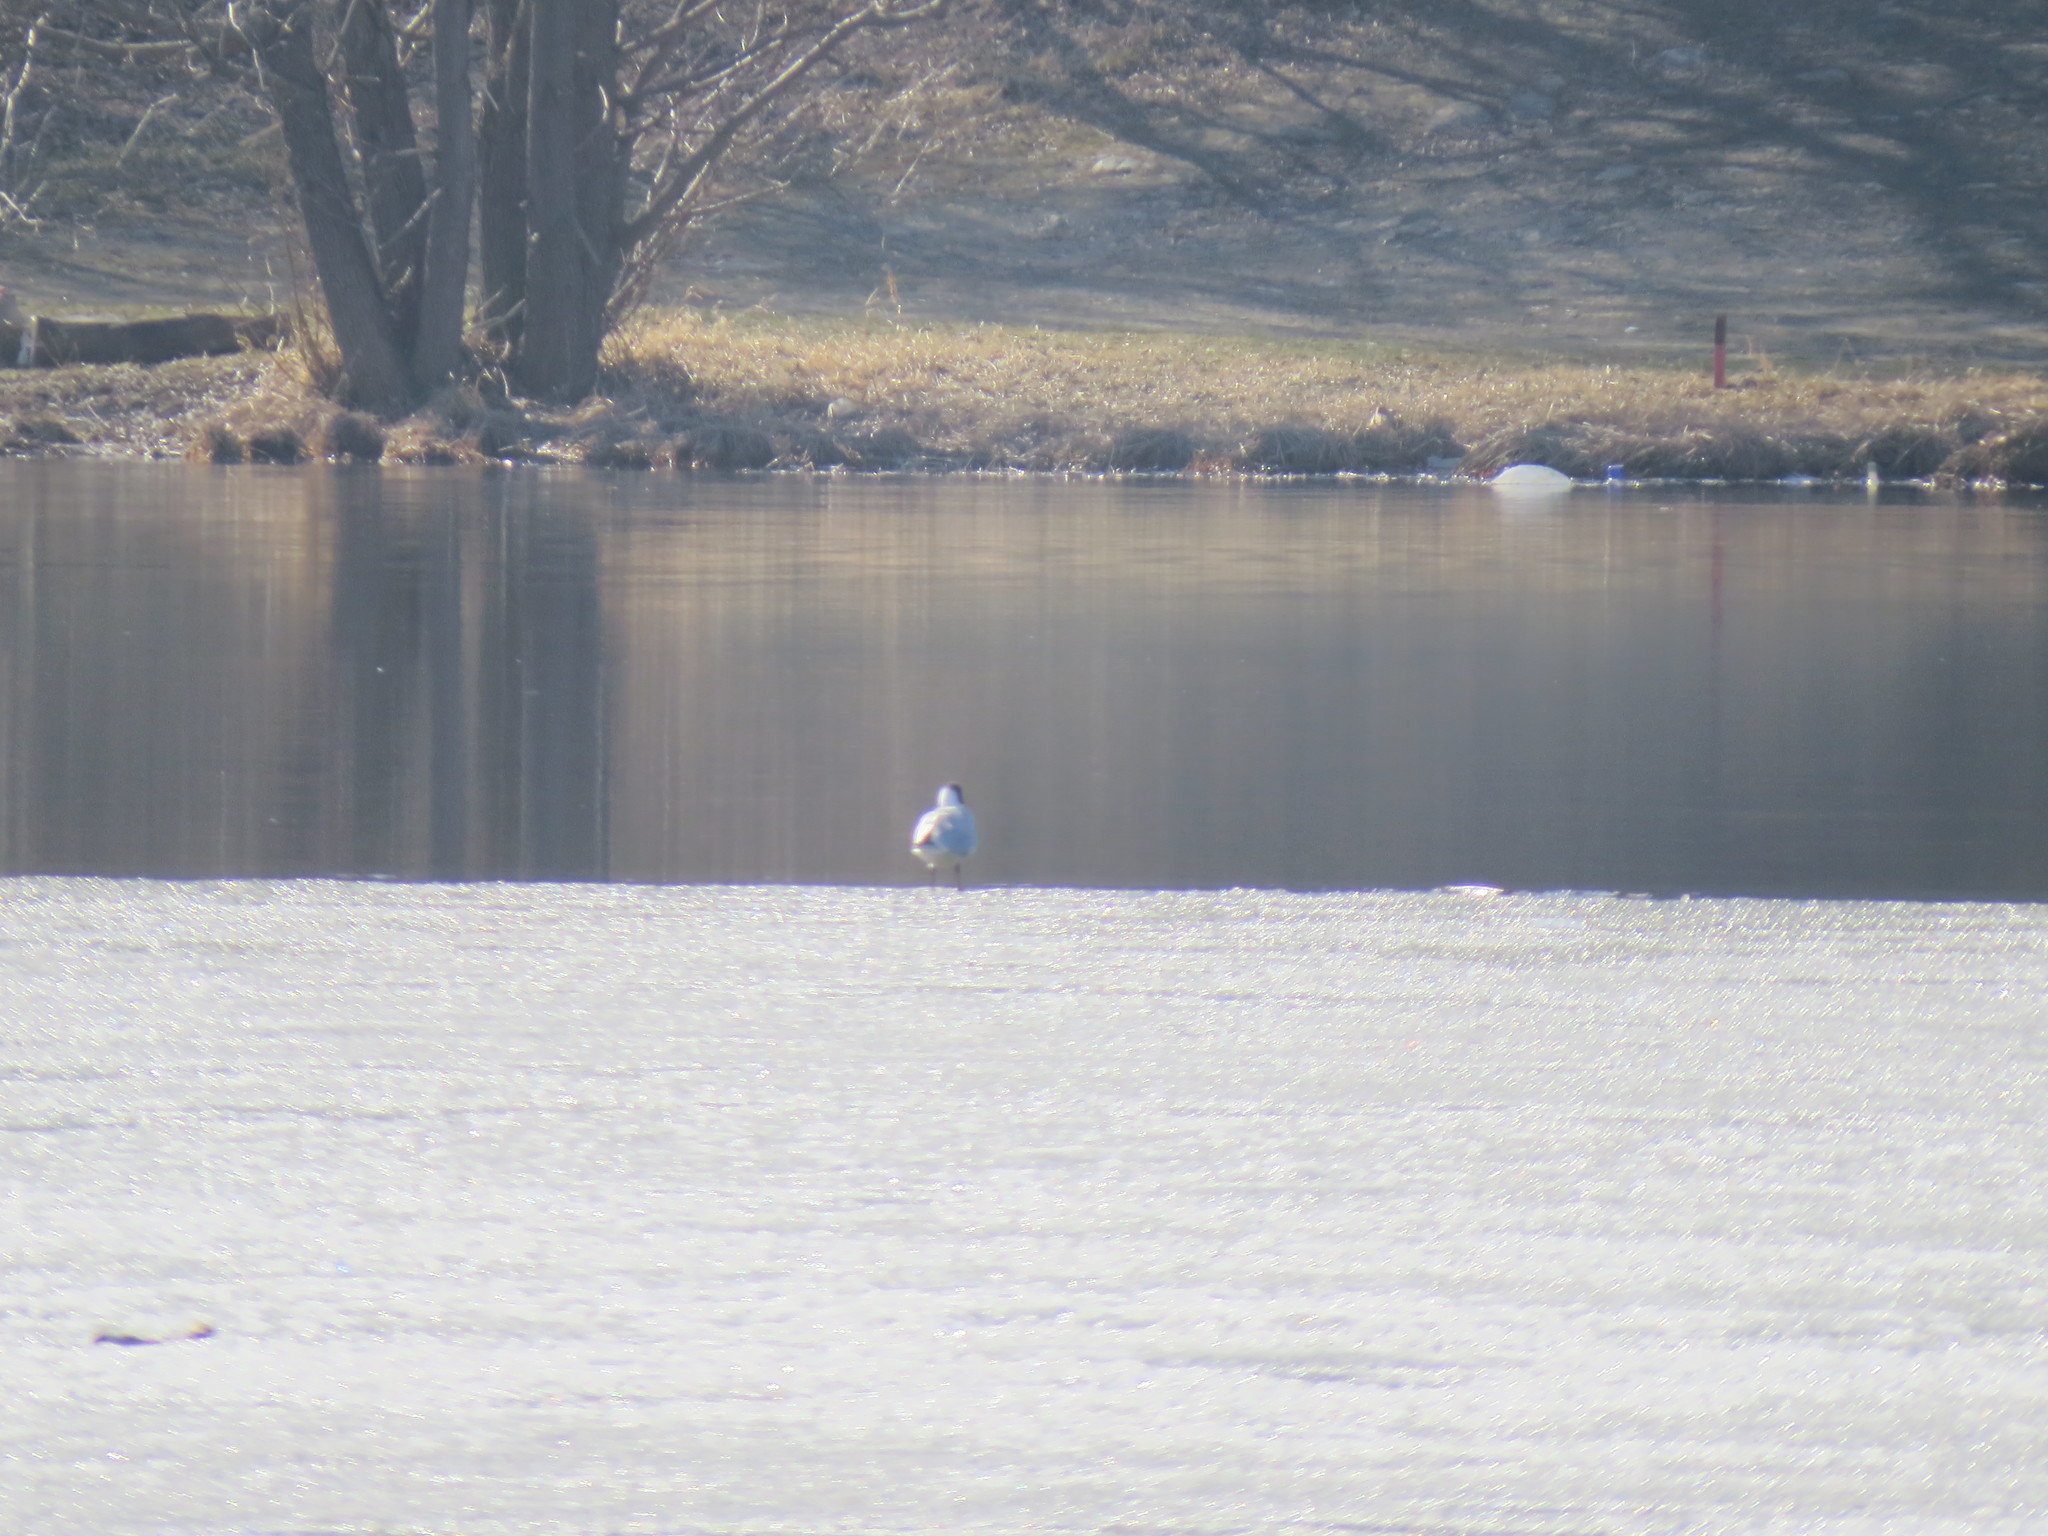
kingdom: Animalia
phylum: Chordata
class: Aves
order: Charadriiformes
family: Laridae
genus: Chroicocephalus
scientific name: Chroicocephalus ridibundus
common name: Black-headed gull
